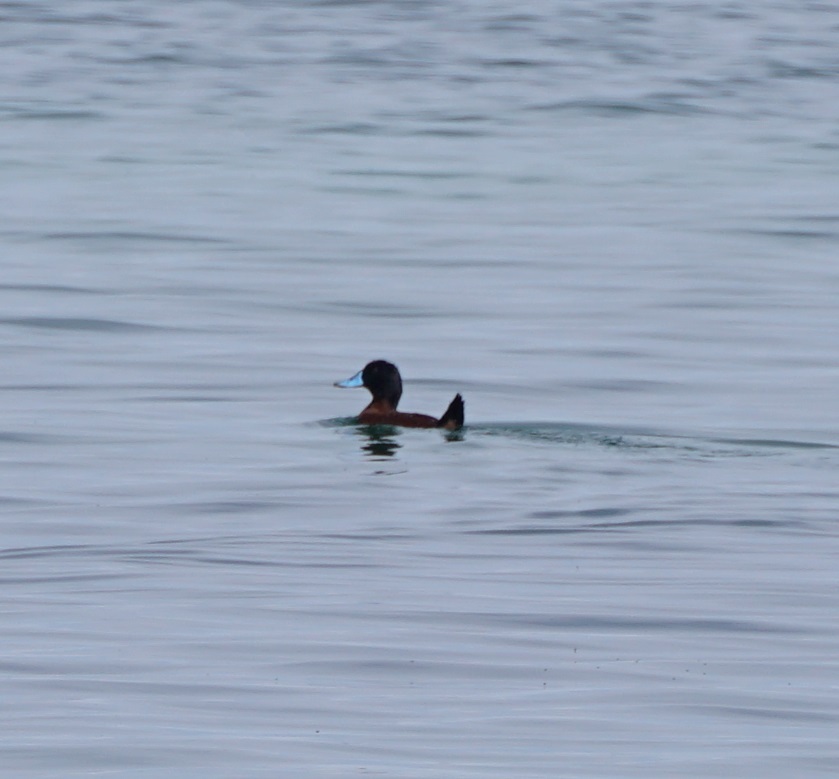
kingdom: Animalia
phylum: Chordata
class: Aves
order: Anseriformes
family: Anatidae
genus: Oxyura
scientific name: Oxyura ferruginea
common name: Andean duck
